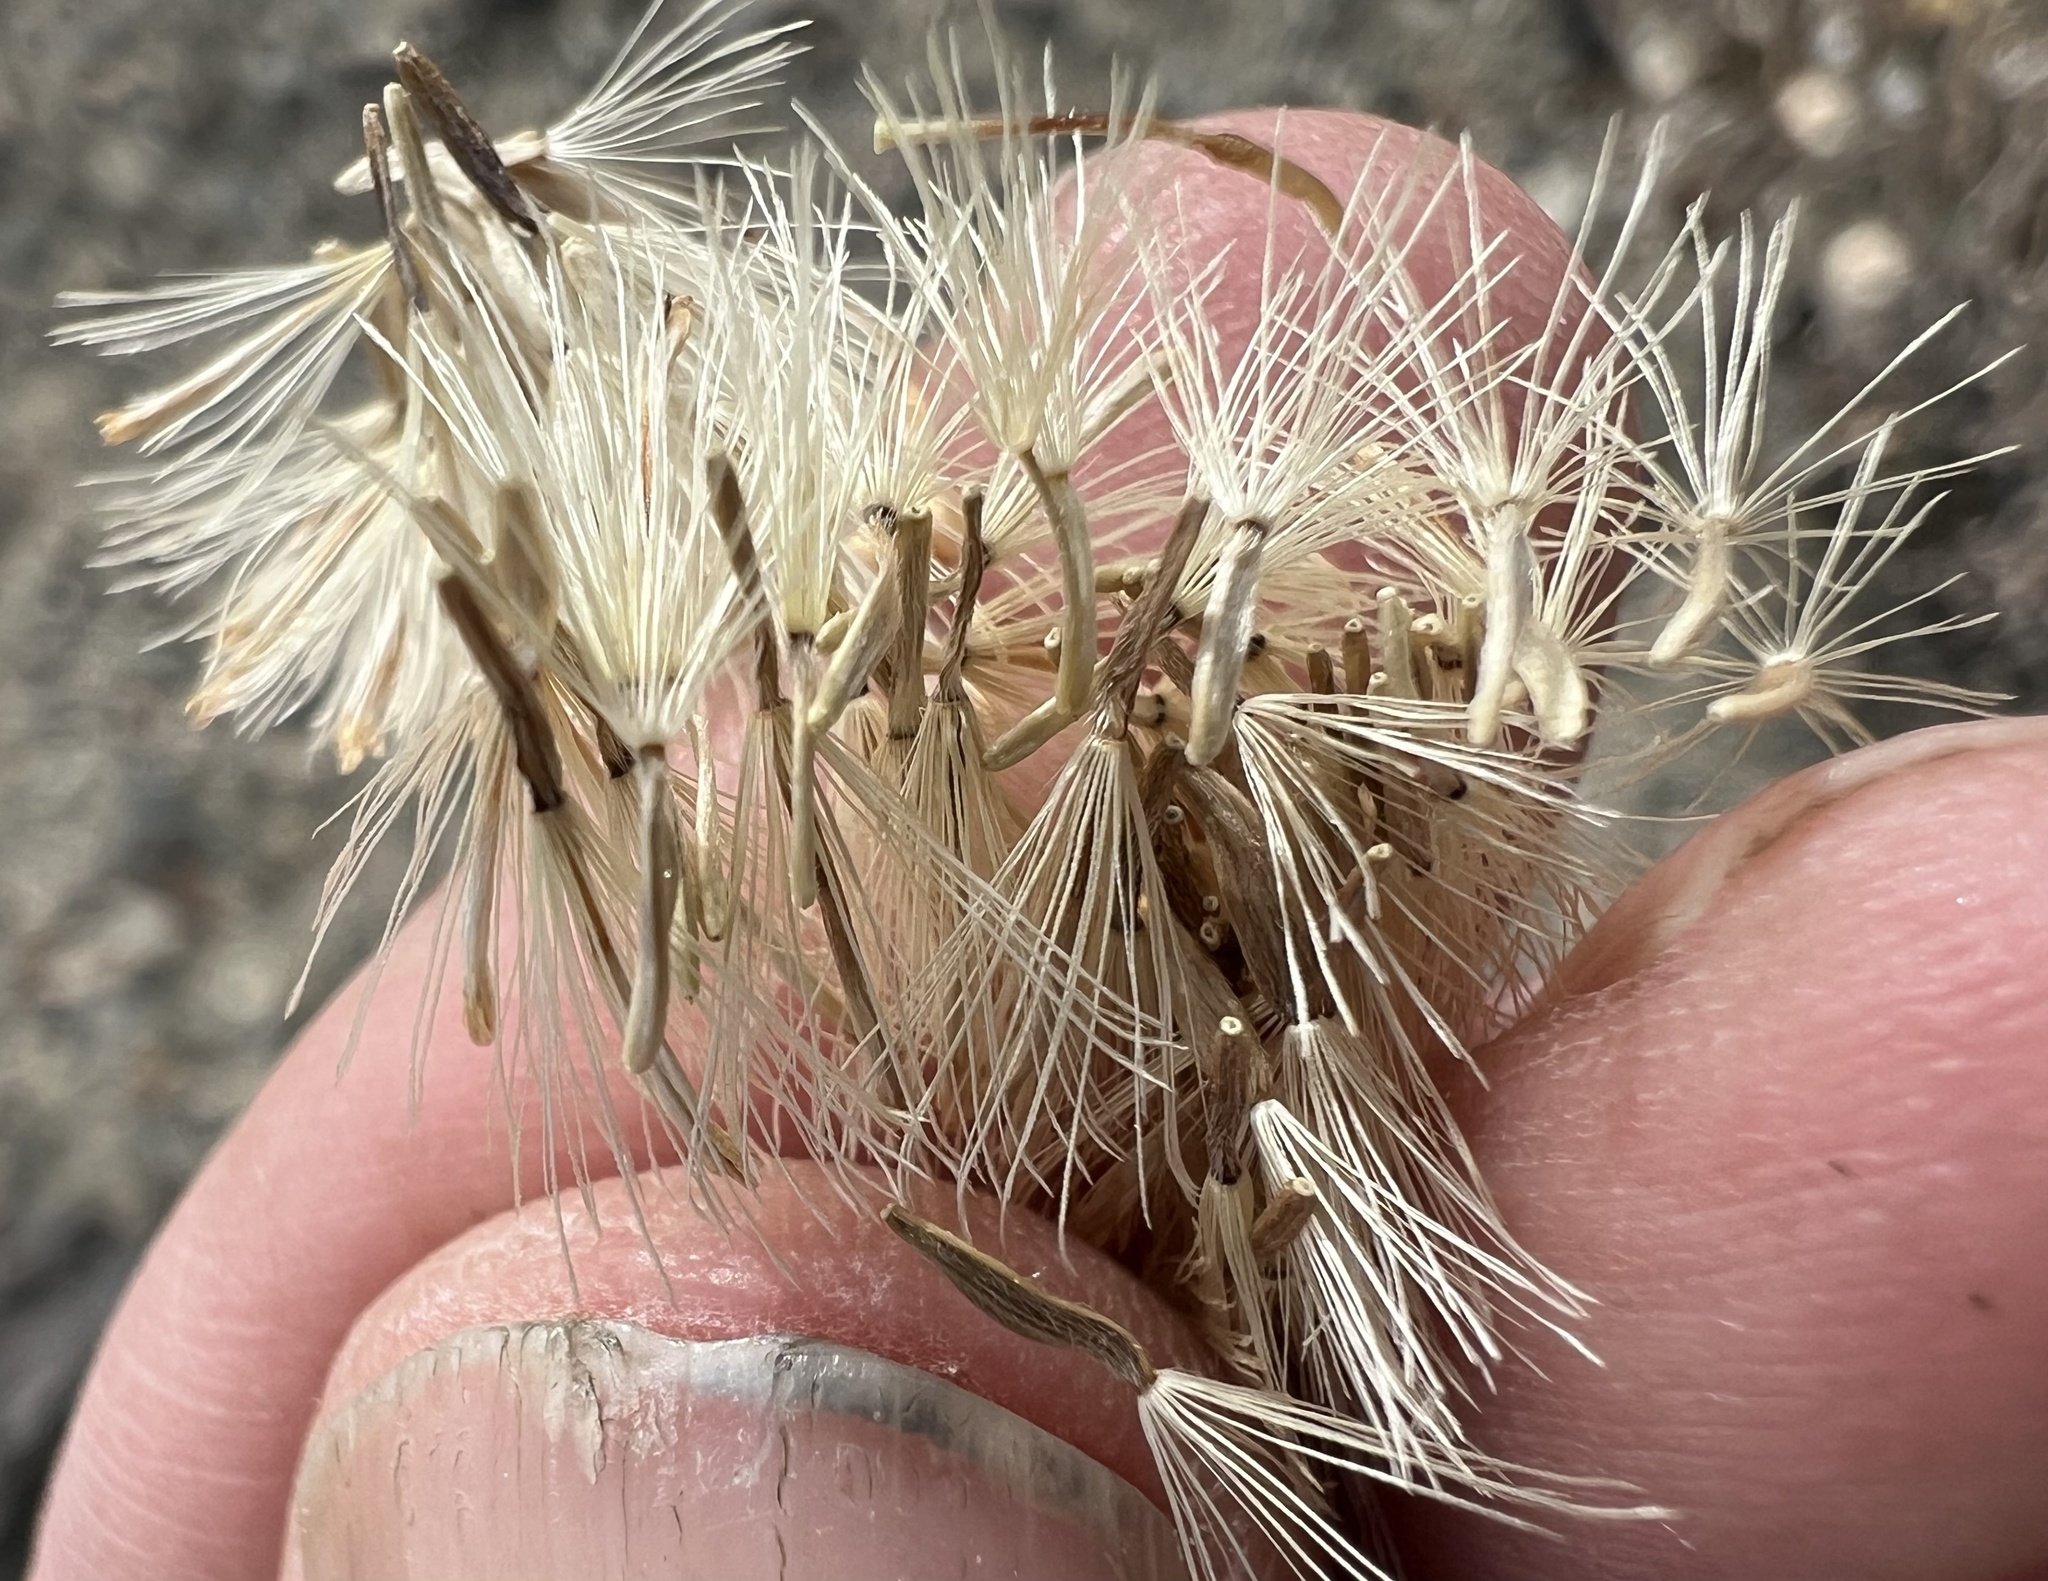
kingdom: Plantae
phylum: Tracheophyta
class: Magnoliopsida
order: Asterales
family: Asteraceae
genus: Xylorhiza
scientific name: Xylorhiza tortifolia
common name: Hurt-leaf woody-aster
